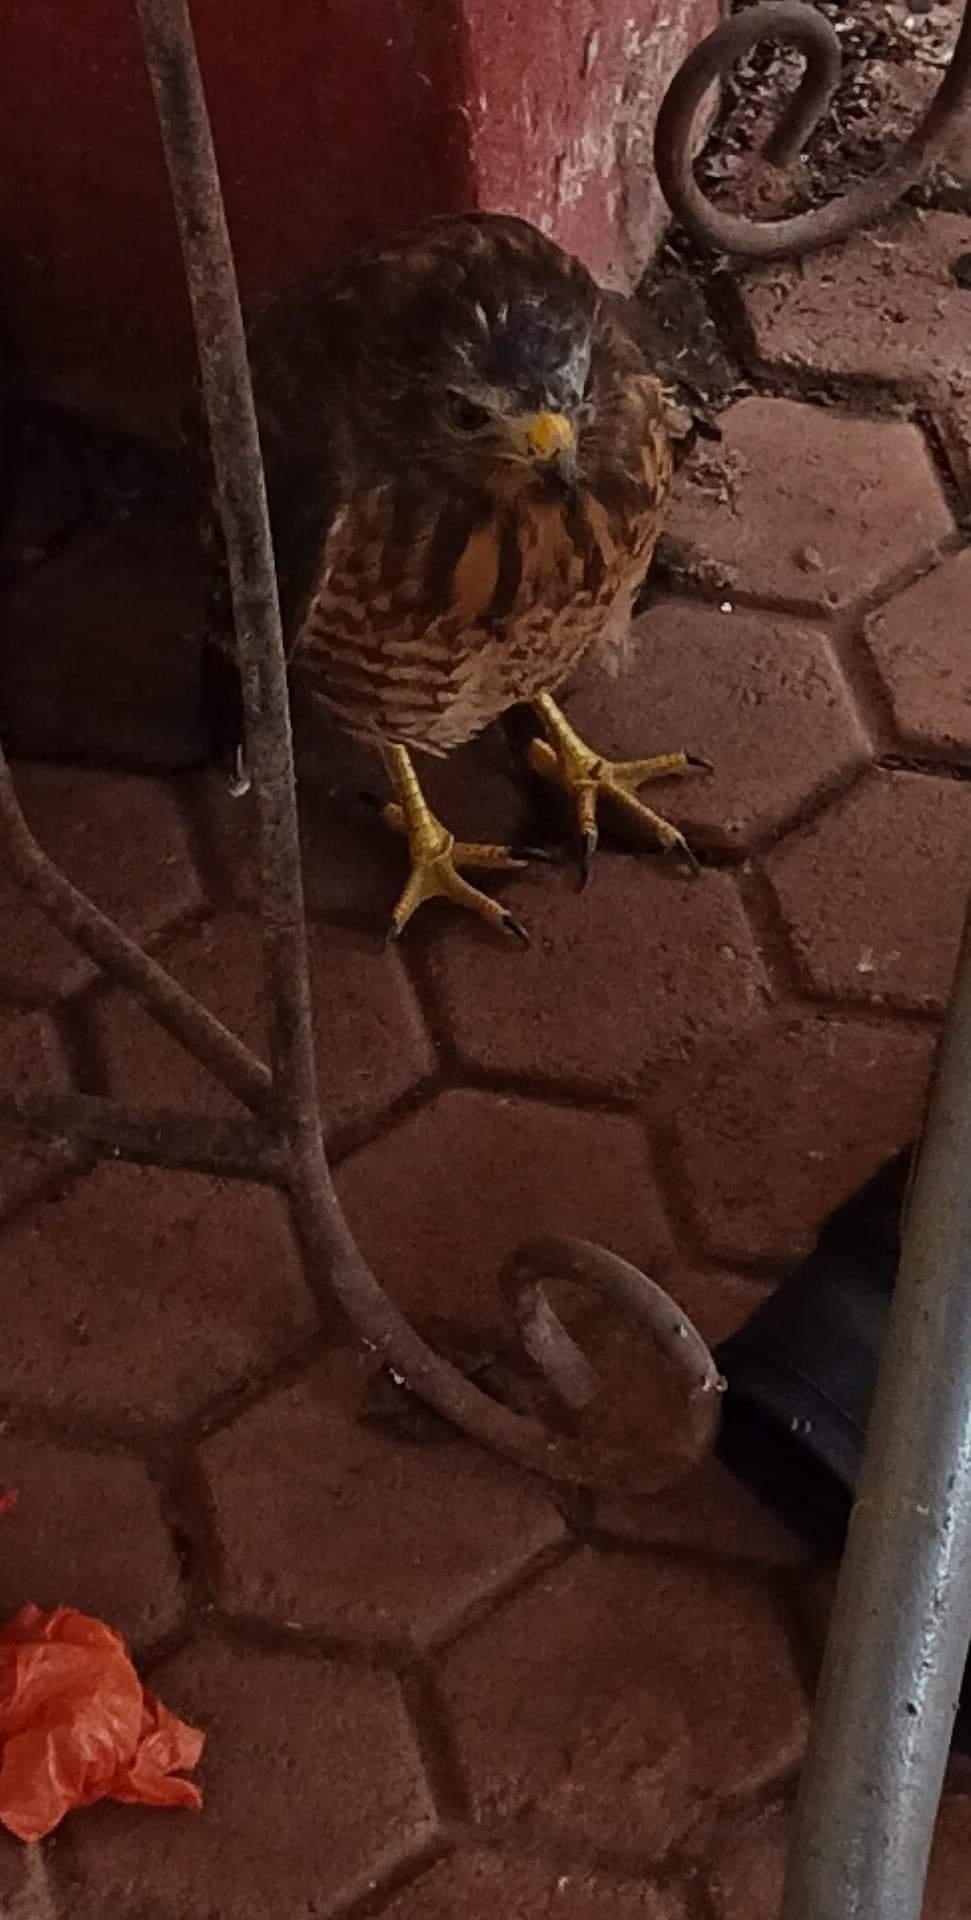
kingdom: Animalia
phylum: Chordata
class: Aves
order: Accipitriformes
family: Accipitridae
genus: Rupornis
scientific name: Rupornis magnirostris
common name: Roadside hawk
